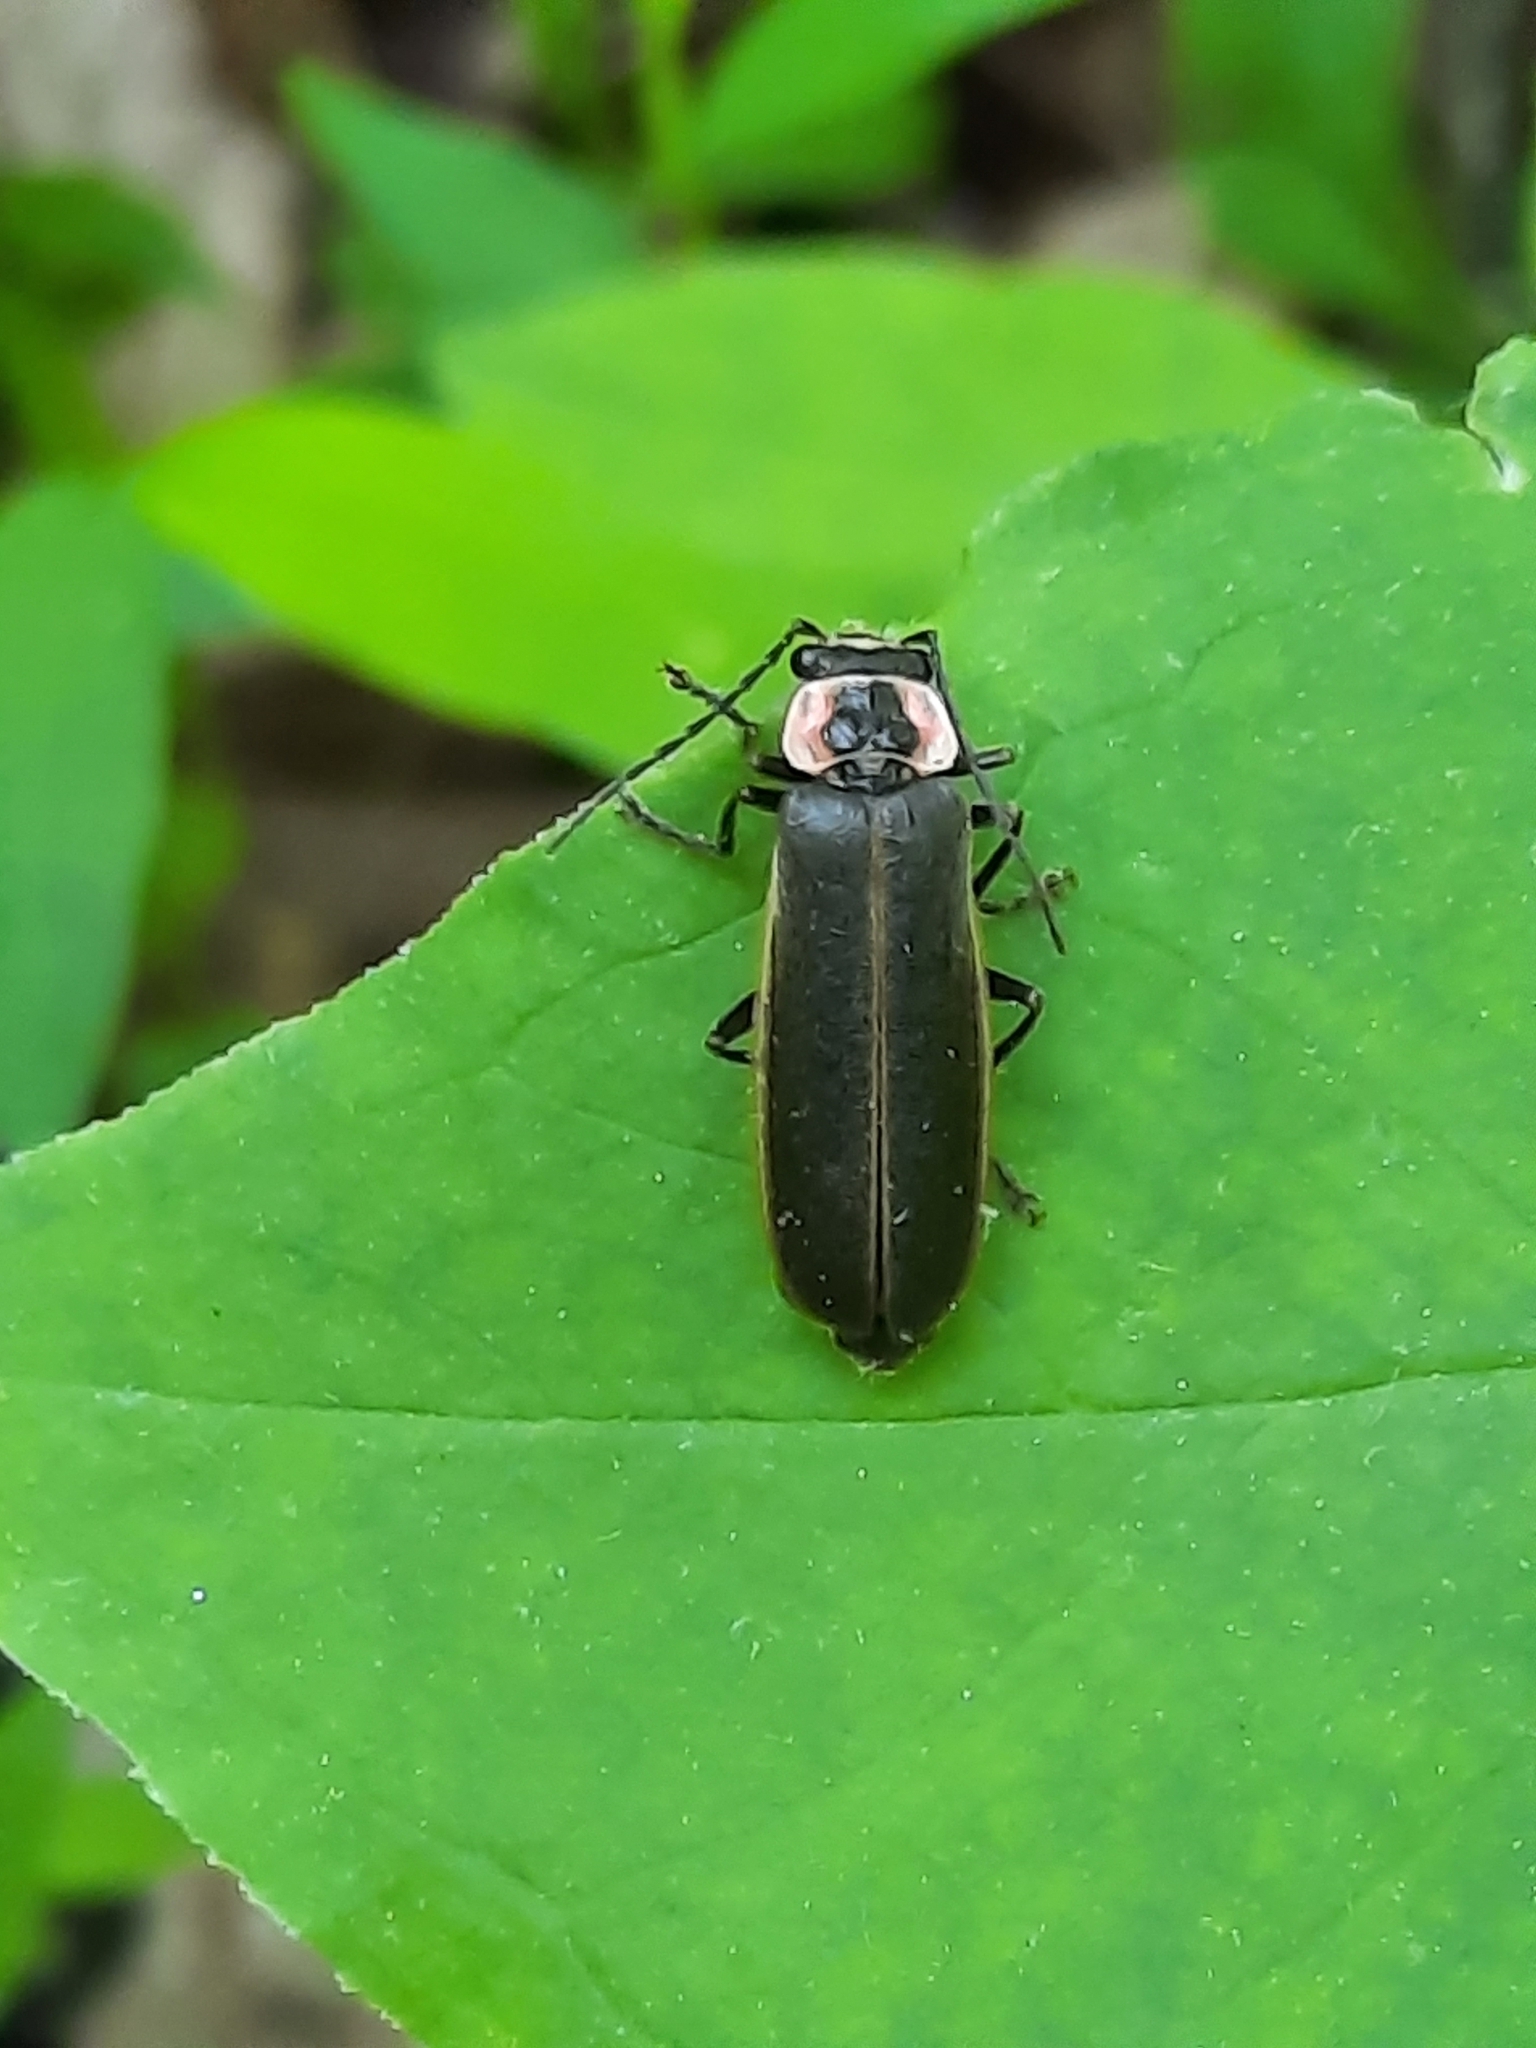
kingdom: Animalia
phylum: Arthropoda
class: Insecta
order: Coleoptera
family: Cantharidae
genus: Podabrus
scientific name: Podabrus brevicollis
